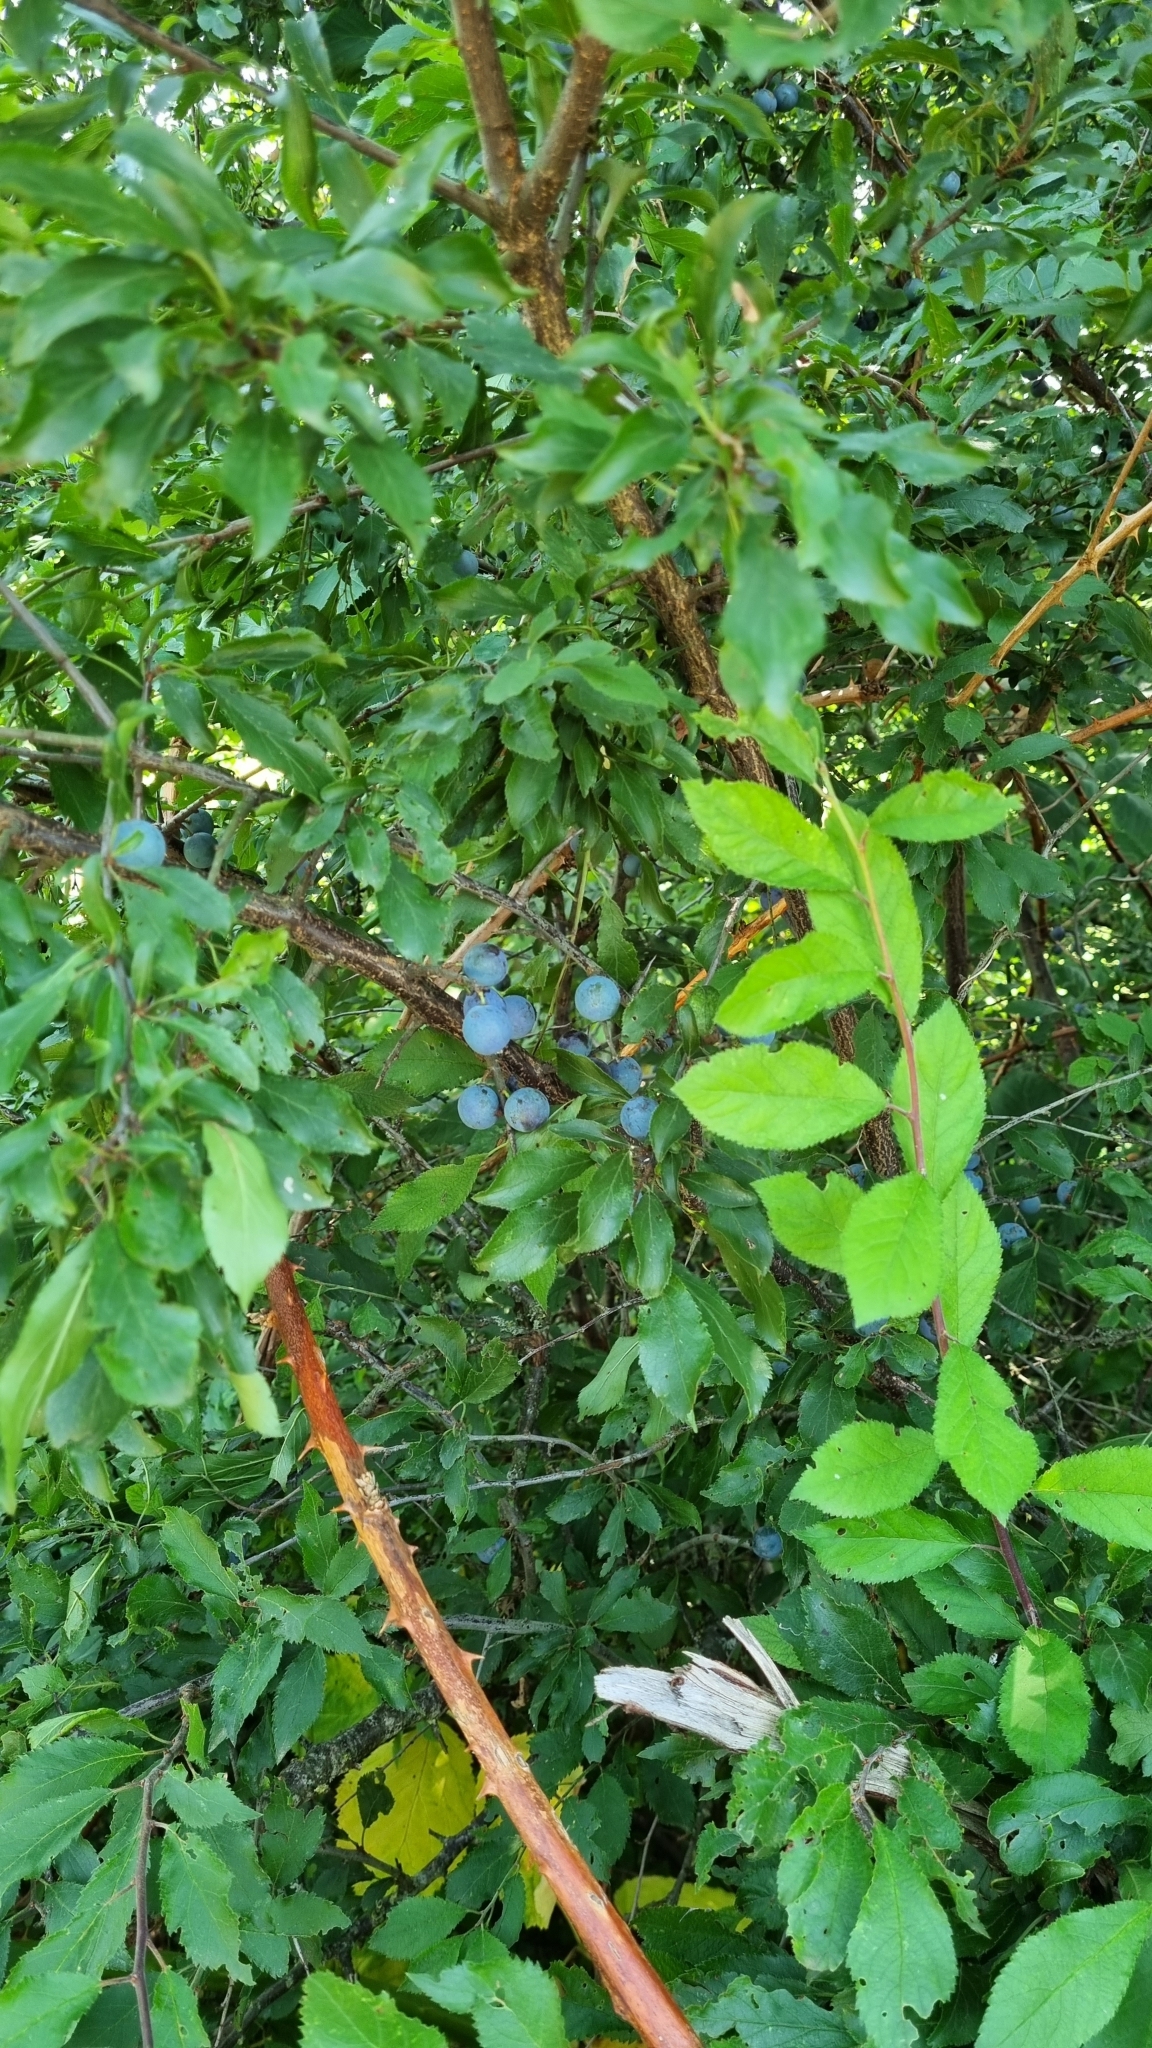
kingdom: Plantae
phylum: Tracheophyta
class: Magnoliopsida
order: Rosales
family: Rosaceae
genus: Prunus
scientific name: Prunus spinosa
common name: Blackthorn
